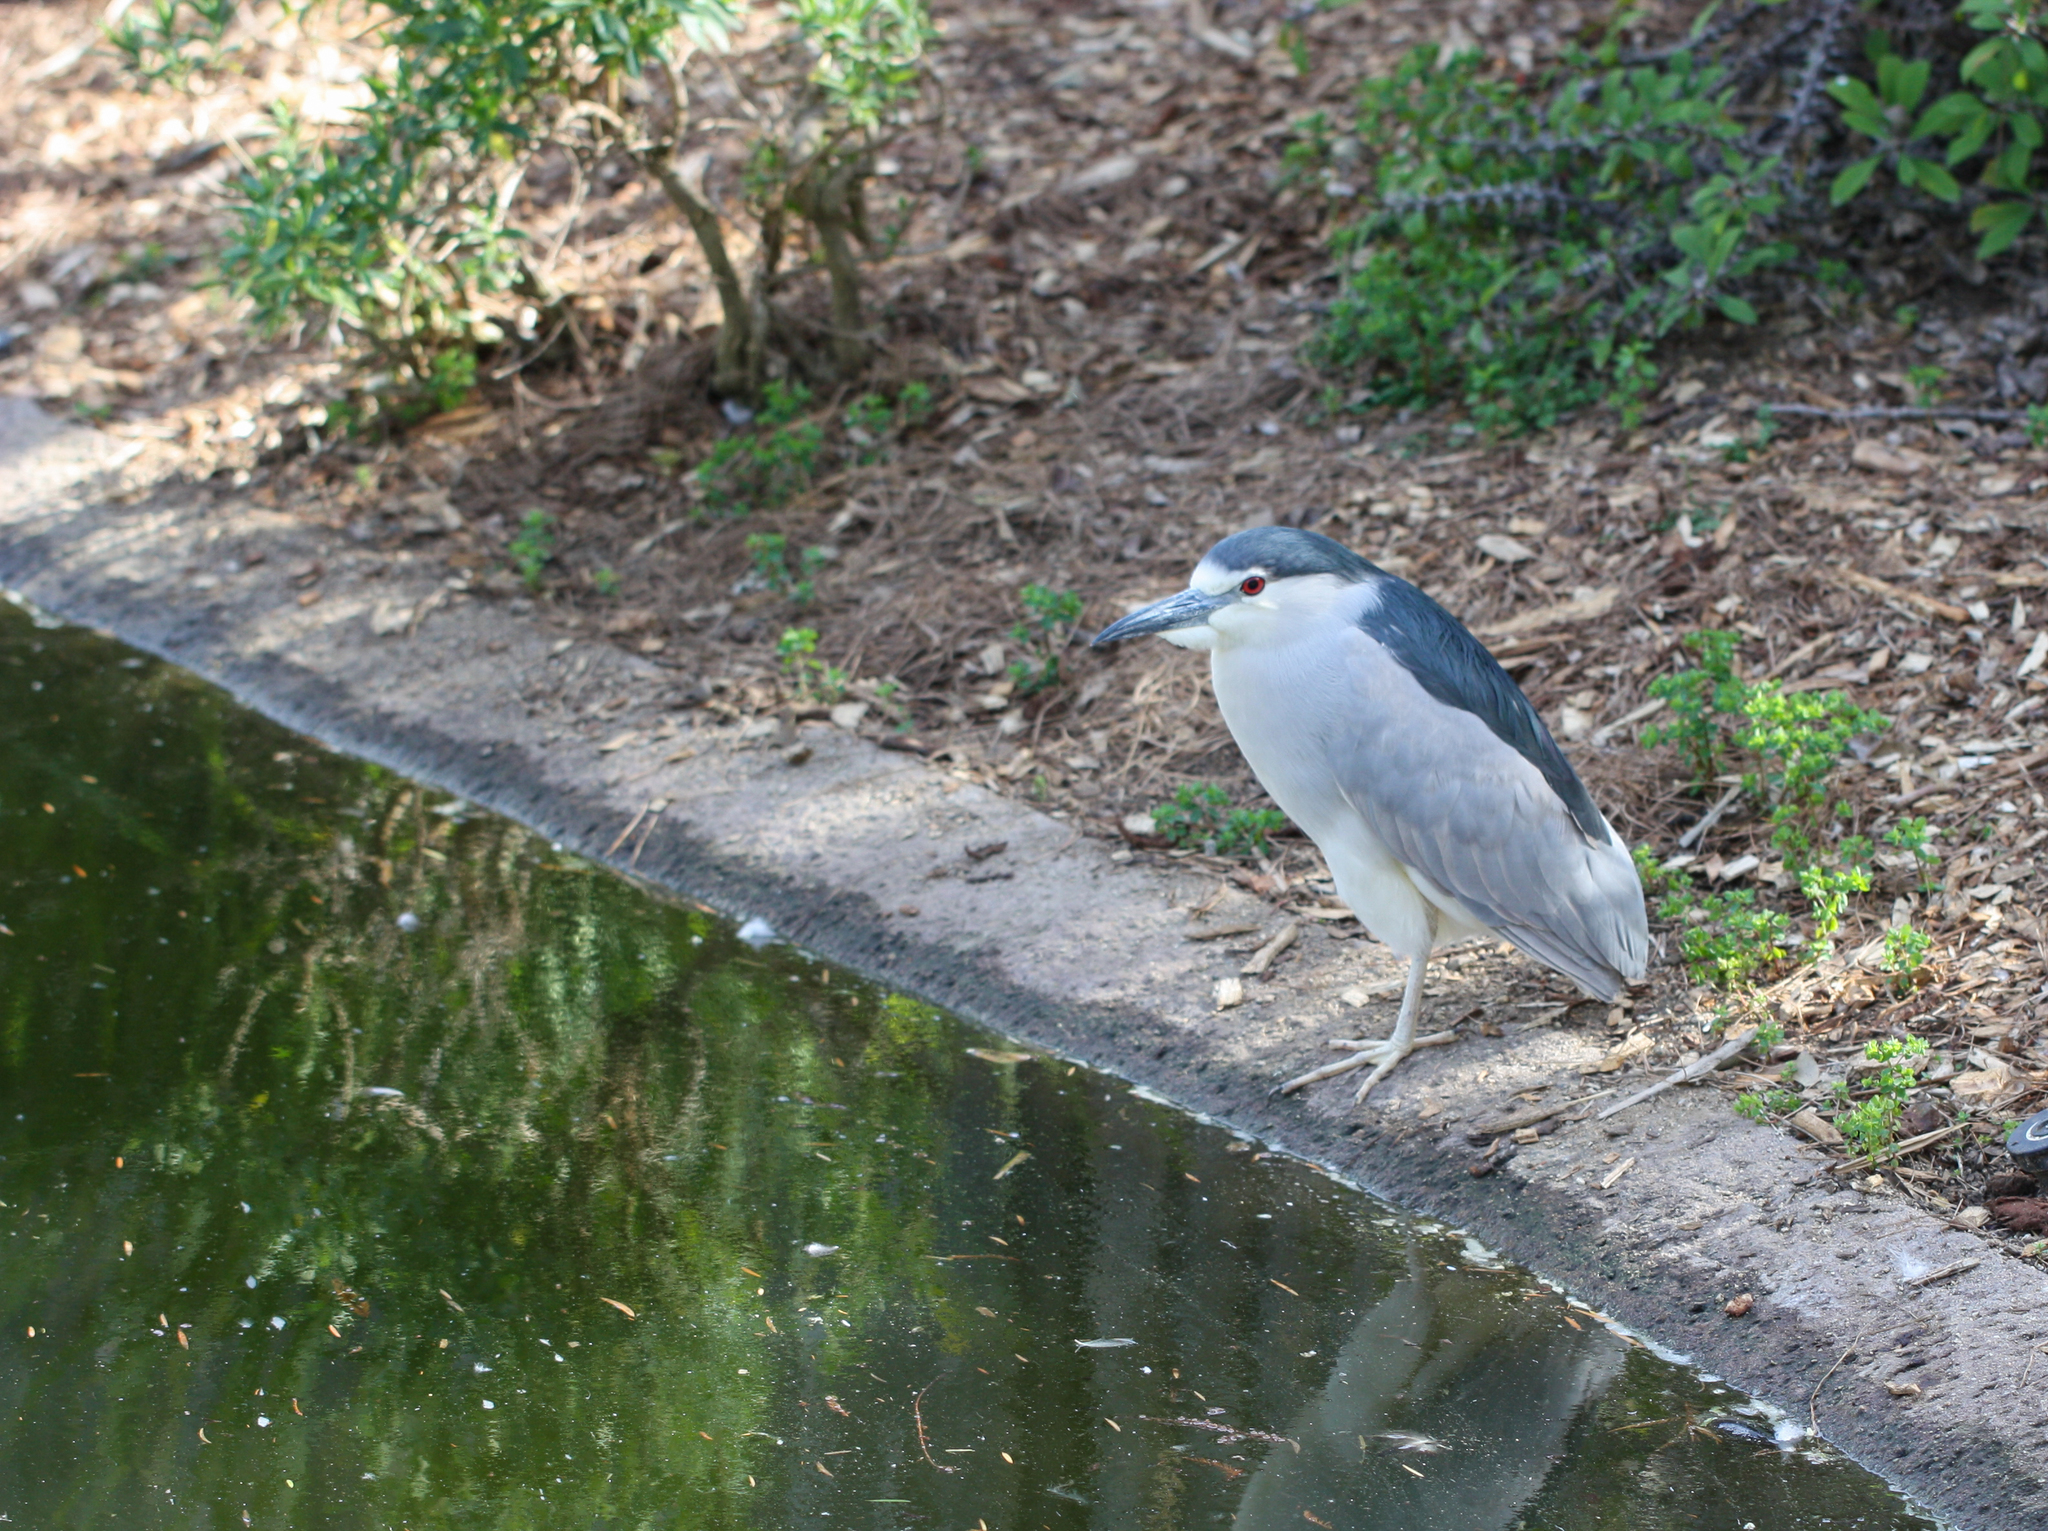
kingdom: Animalia
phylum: Chordata
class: Aves
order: Pelecaniformes
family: Ardeidae
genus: Nycticorax
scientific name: Nycticorax nycticorax
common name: Black-crowned night heron
